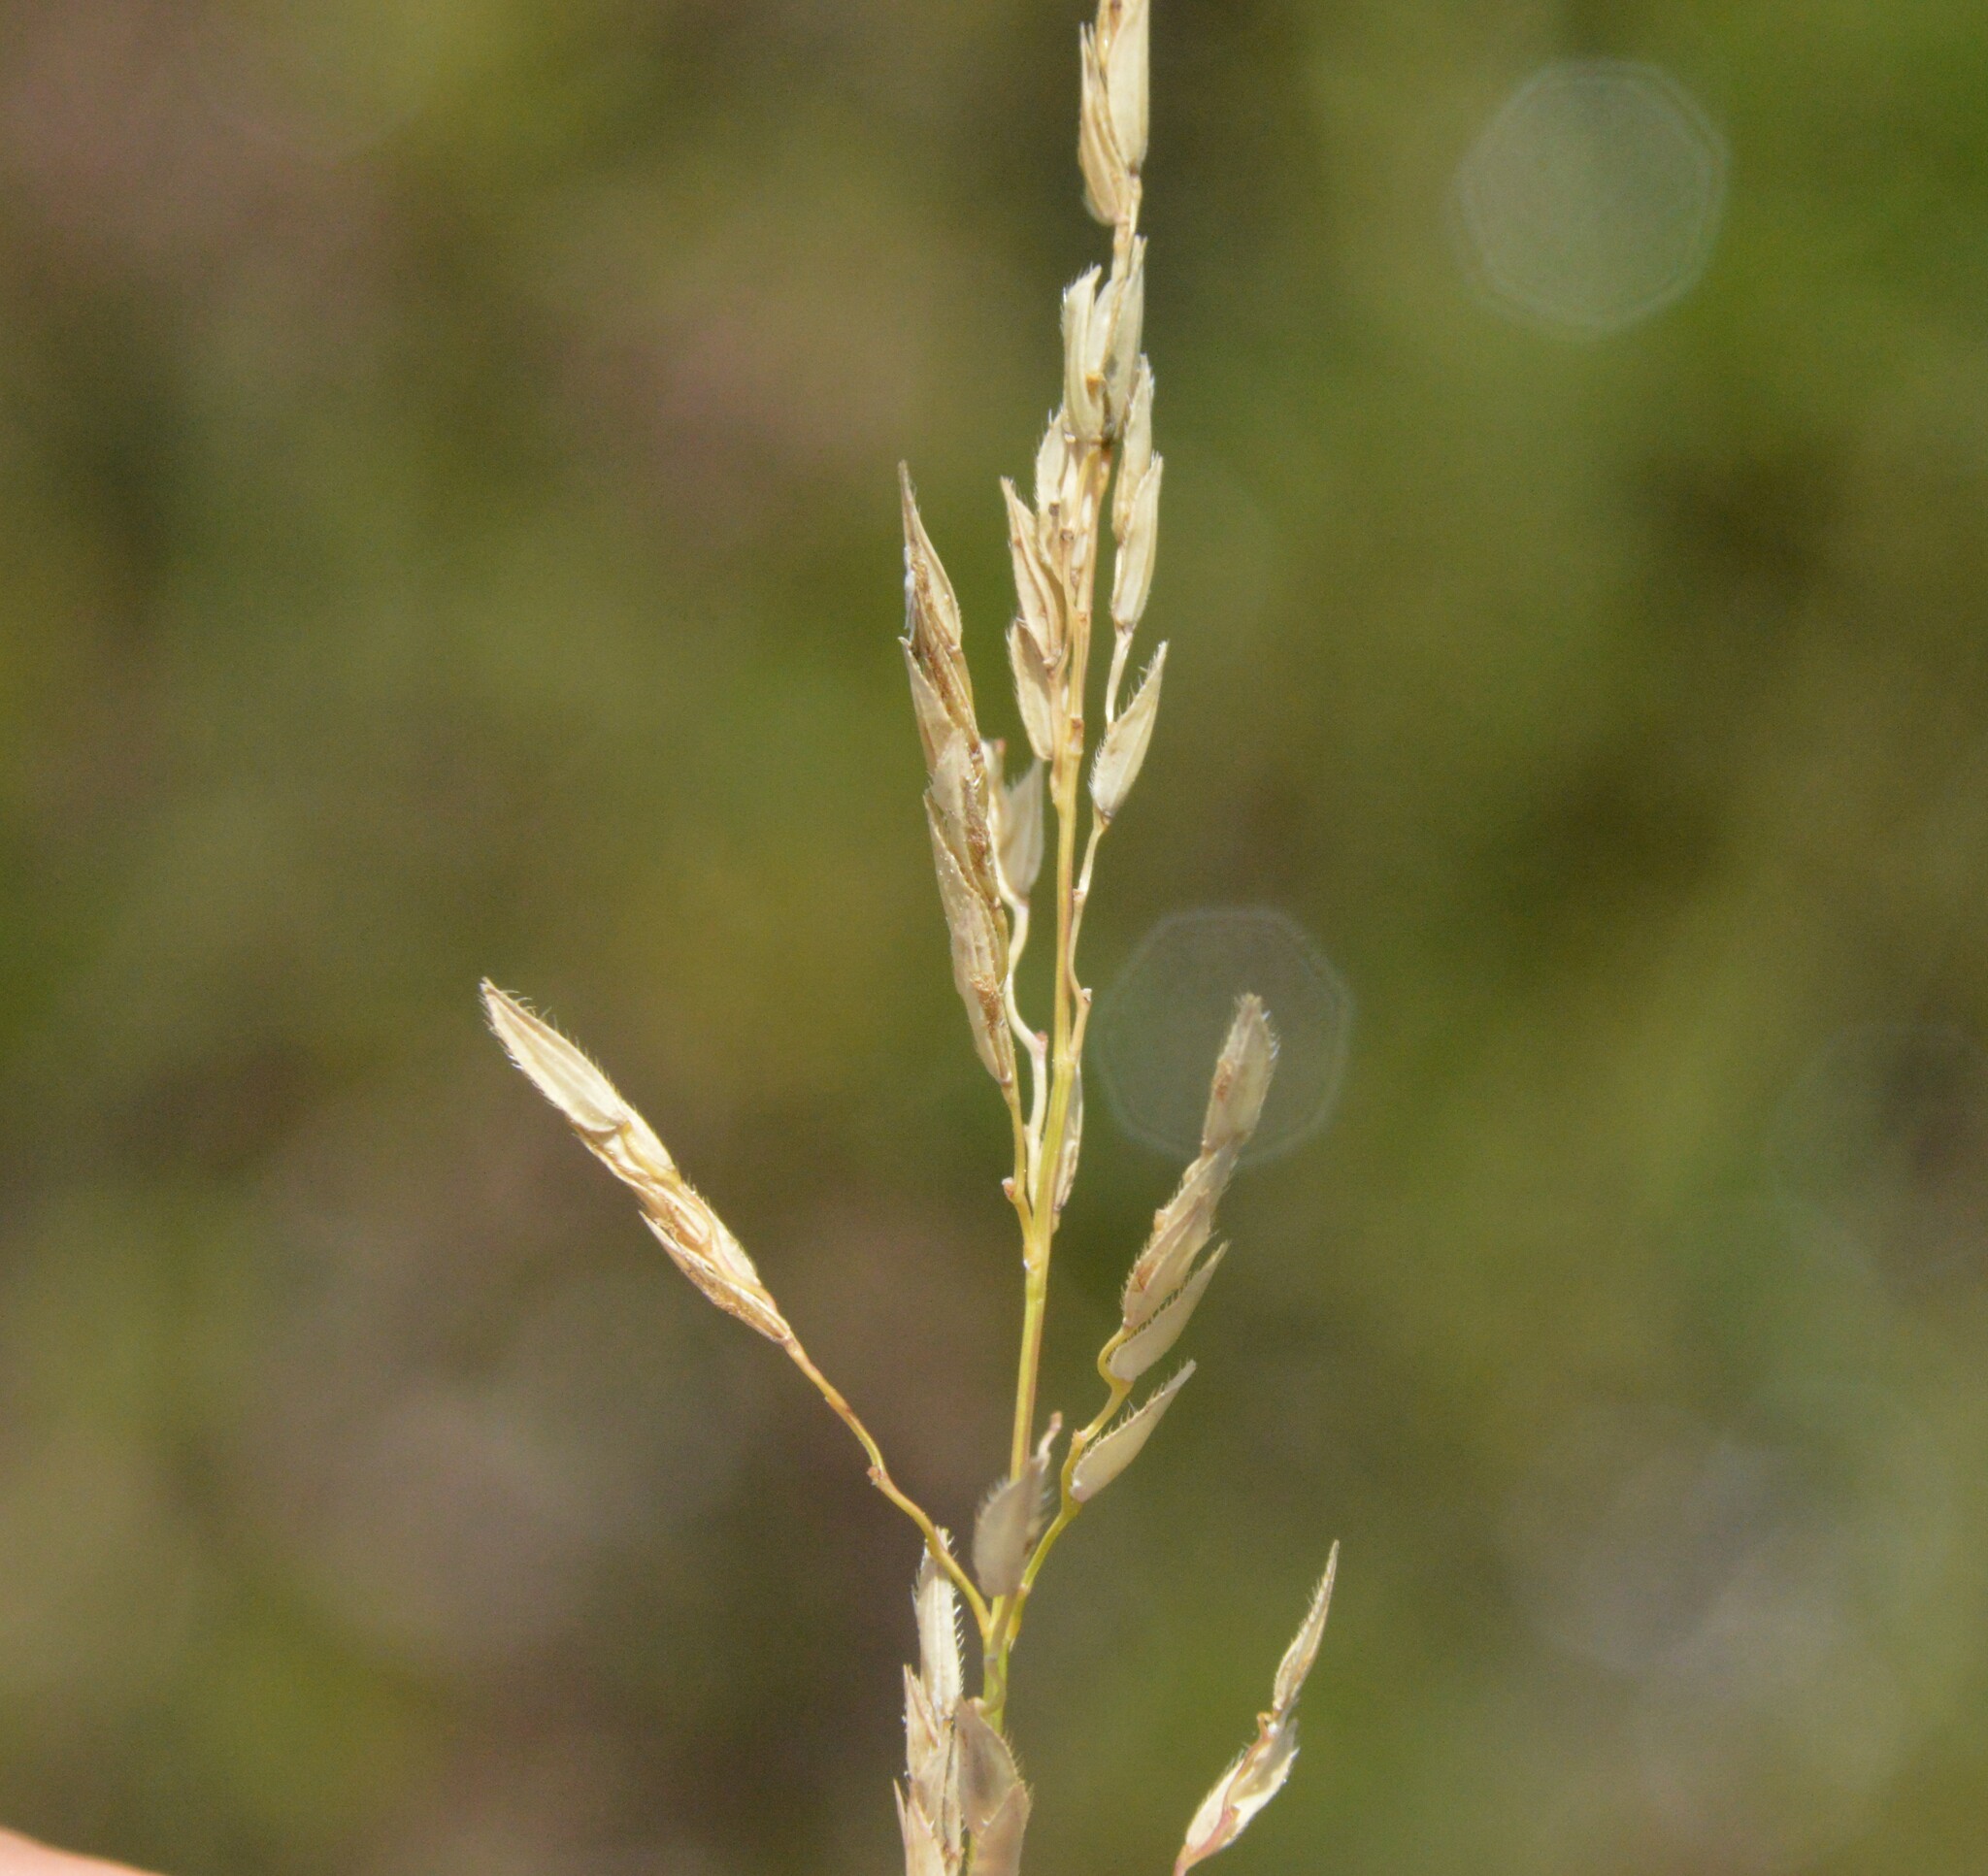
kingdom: Plantae
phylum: Tracheophyta
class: Liliopsida
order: Poales
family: Poaceae
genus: Leersia
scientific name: Leersia hexandra
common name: Southern cut grass
